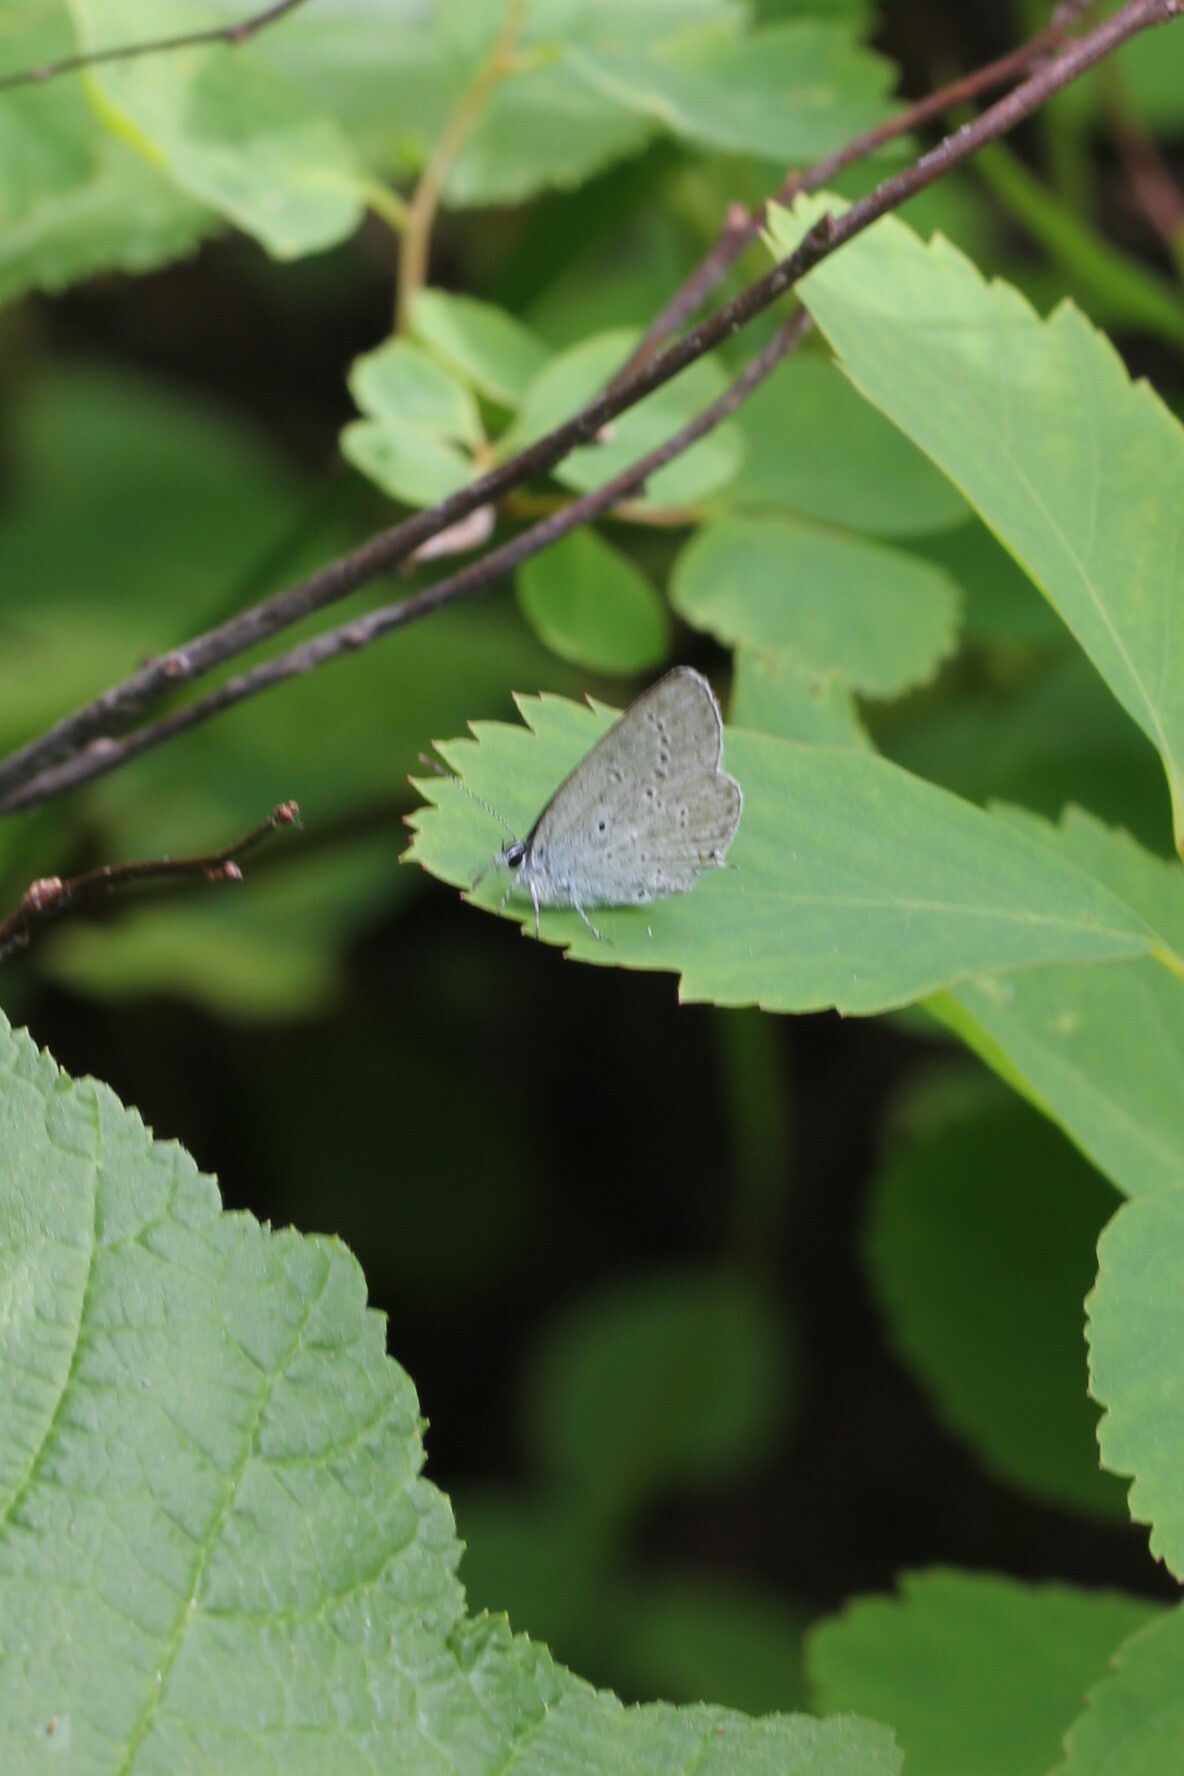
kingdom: Animalia
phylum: Arthropoda
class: Insecta
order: Lepidoptera
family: Lycaenidae
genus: Elkalyce
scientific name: Elkalyce amyntula
